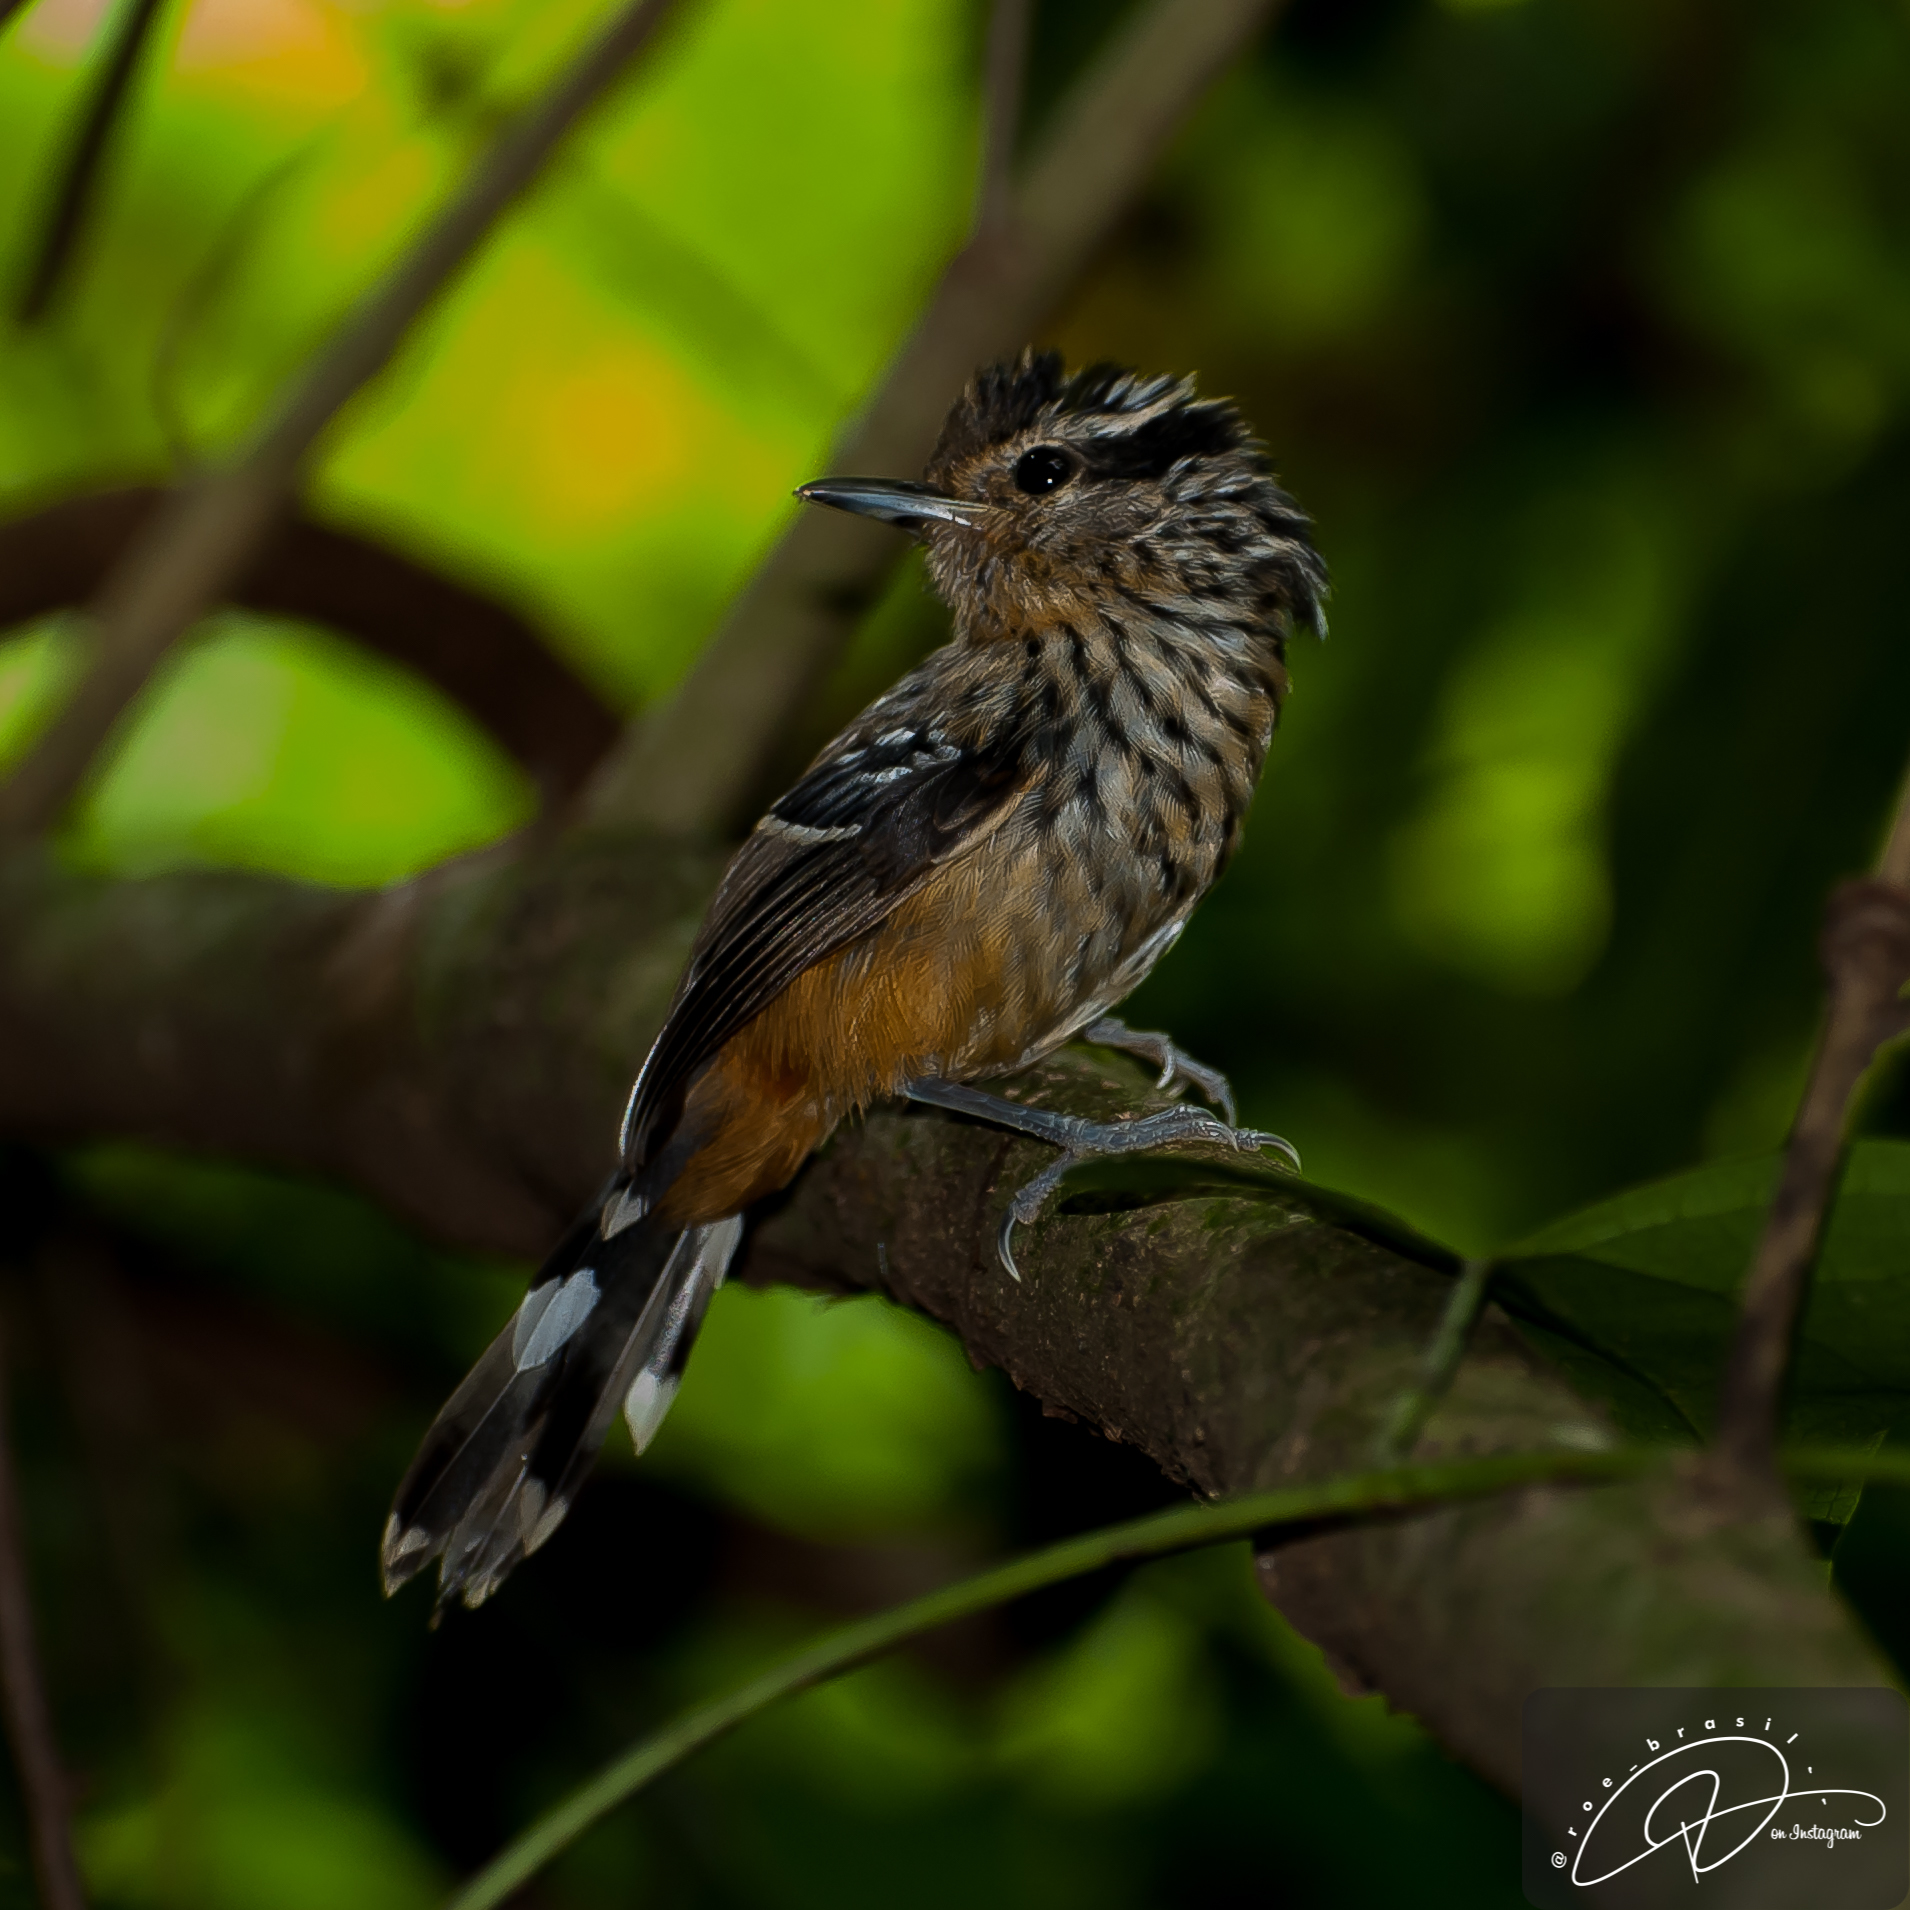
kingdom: Animalia
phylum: Chordata
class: Aves
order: Passeriformes
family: Thamnophilidae
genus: Drymophila
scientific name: Drymophila ochropyga
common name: Ochre-rumped antbird
